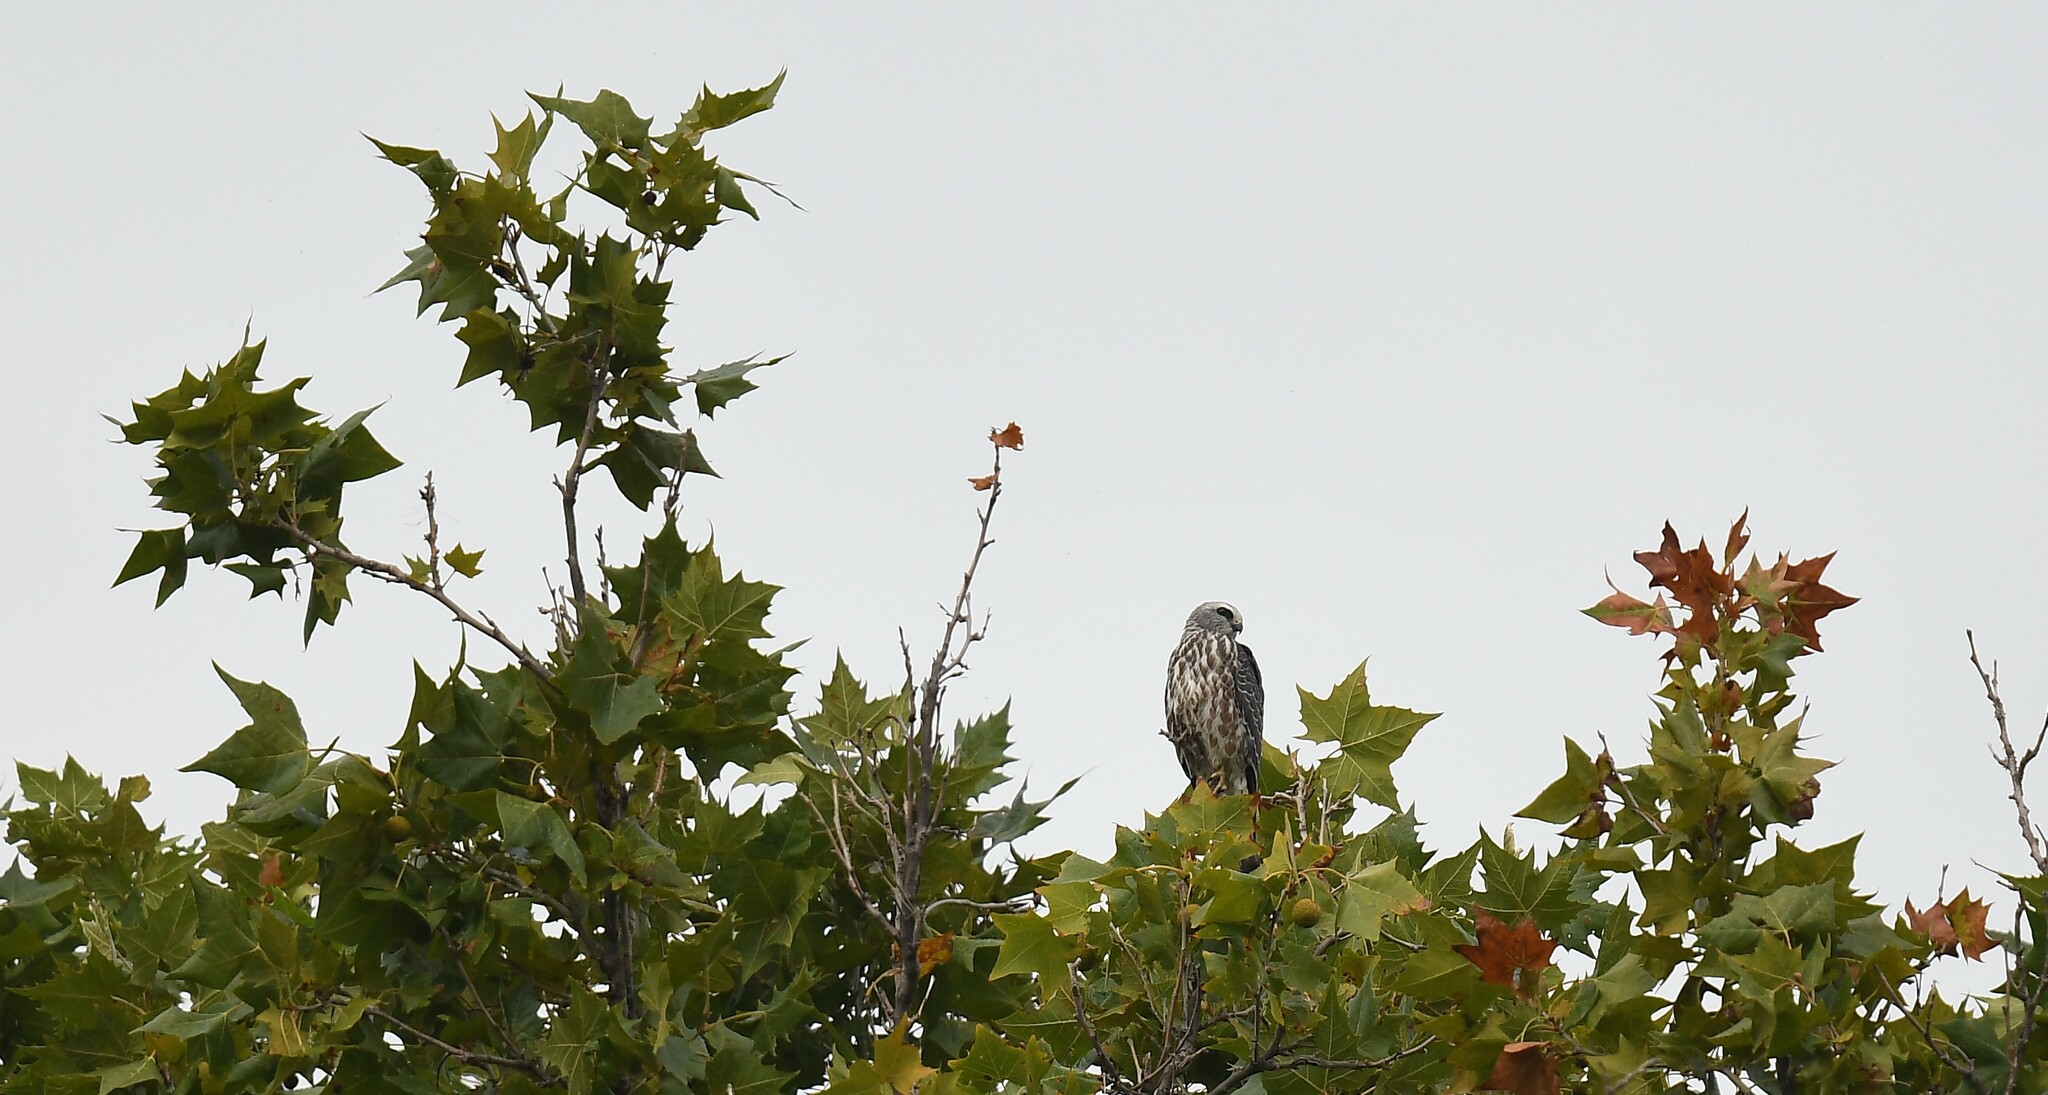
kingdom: Animalia
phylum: Chordata
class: Aves
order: Accipitriformes
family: Accipitridae
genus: Ictinia
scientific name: Ictinia mississippiensis
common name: Mississippi kite
